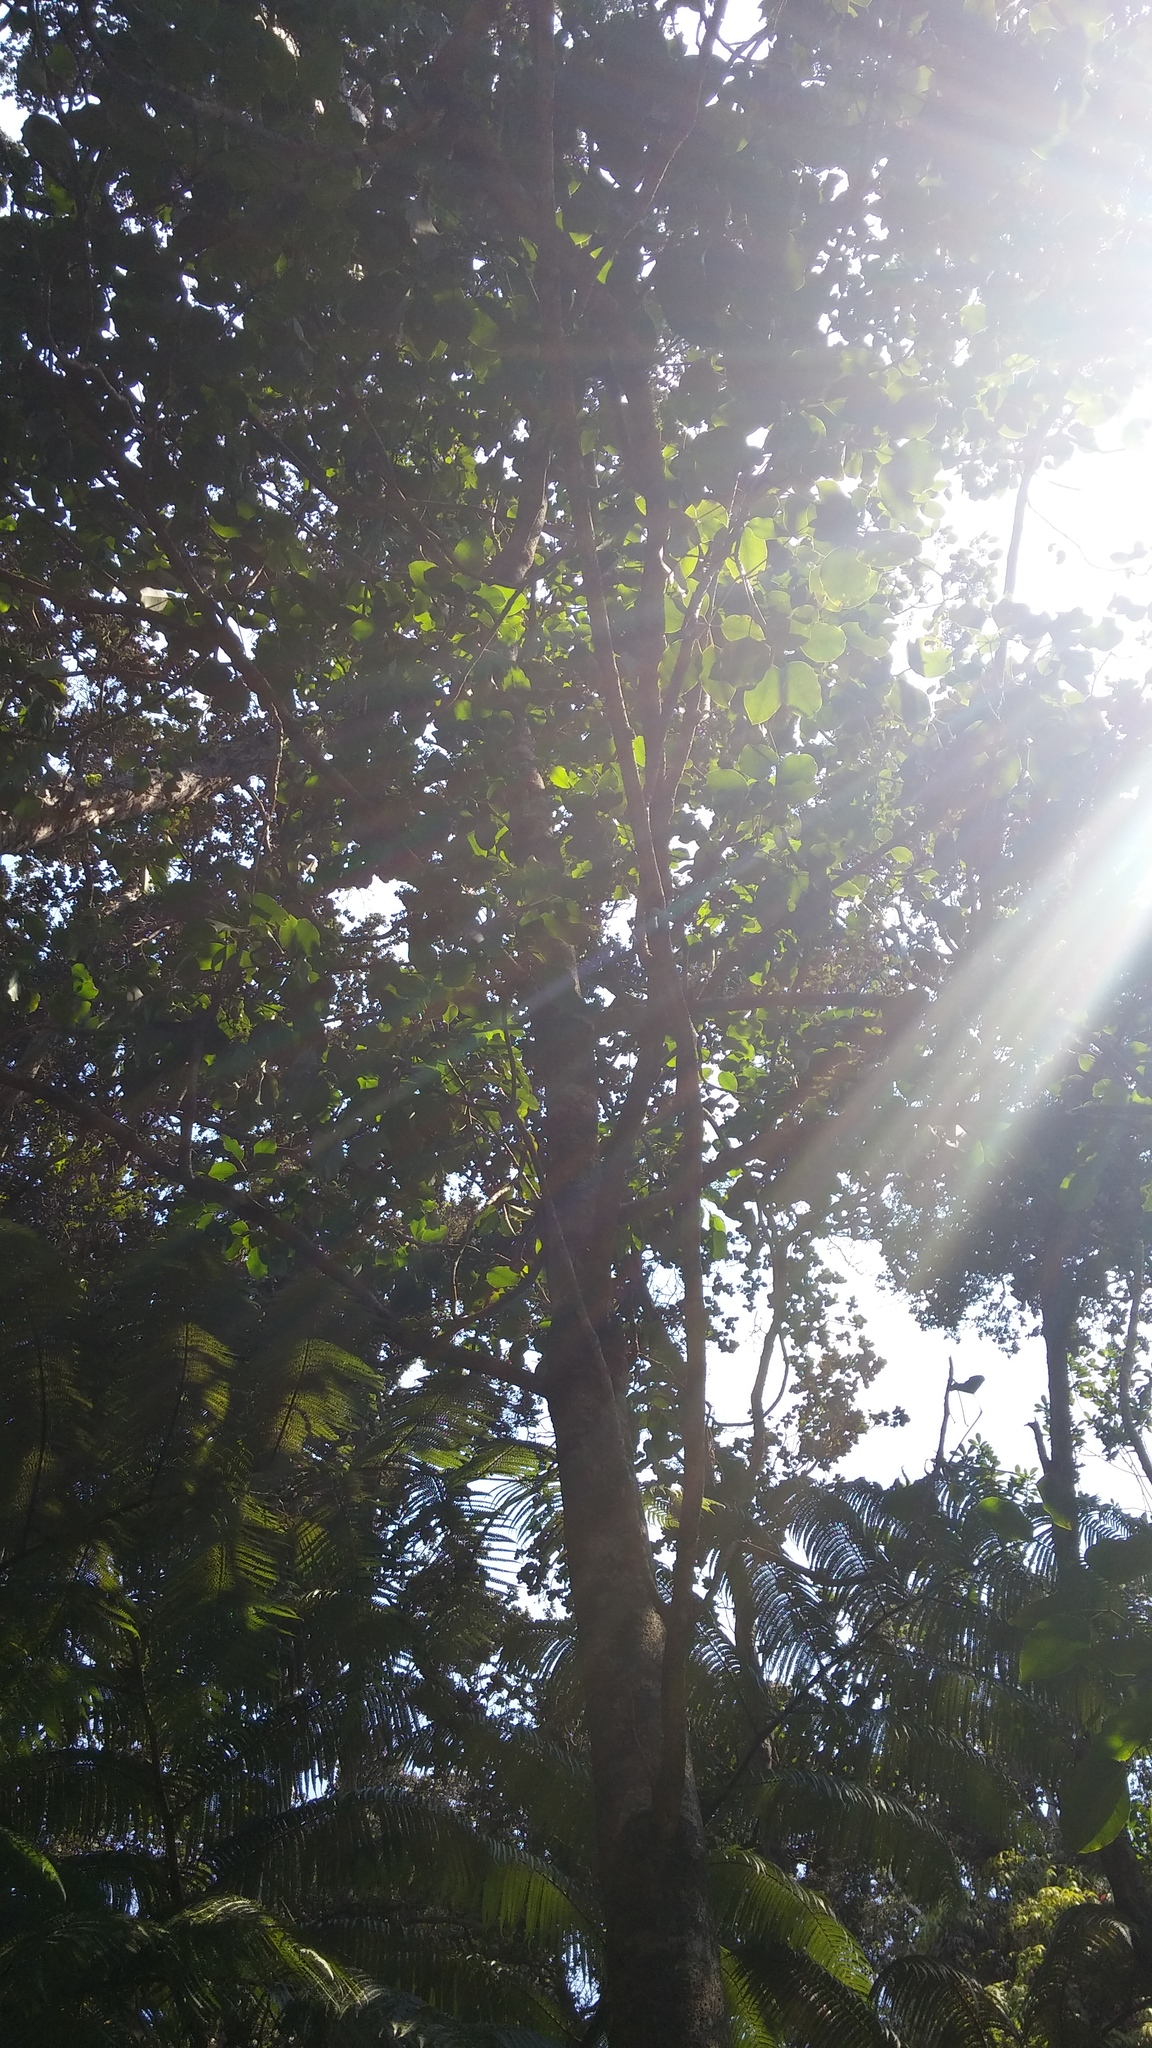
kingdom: Plantae
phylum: Tracheophyta
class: Magnoliopsida
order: Apiales
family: Araliaceae
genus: Cheirodendron
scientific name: Cheirodendron trigynum
